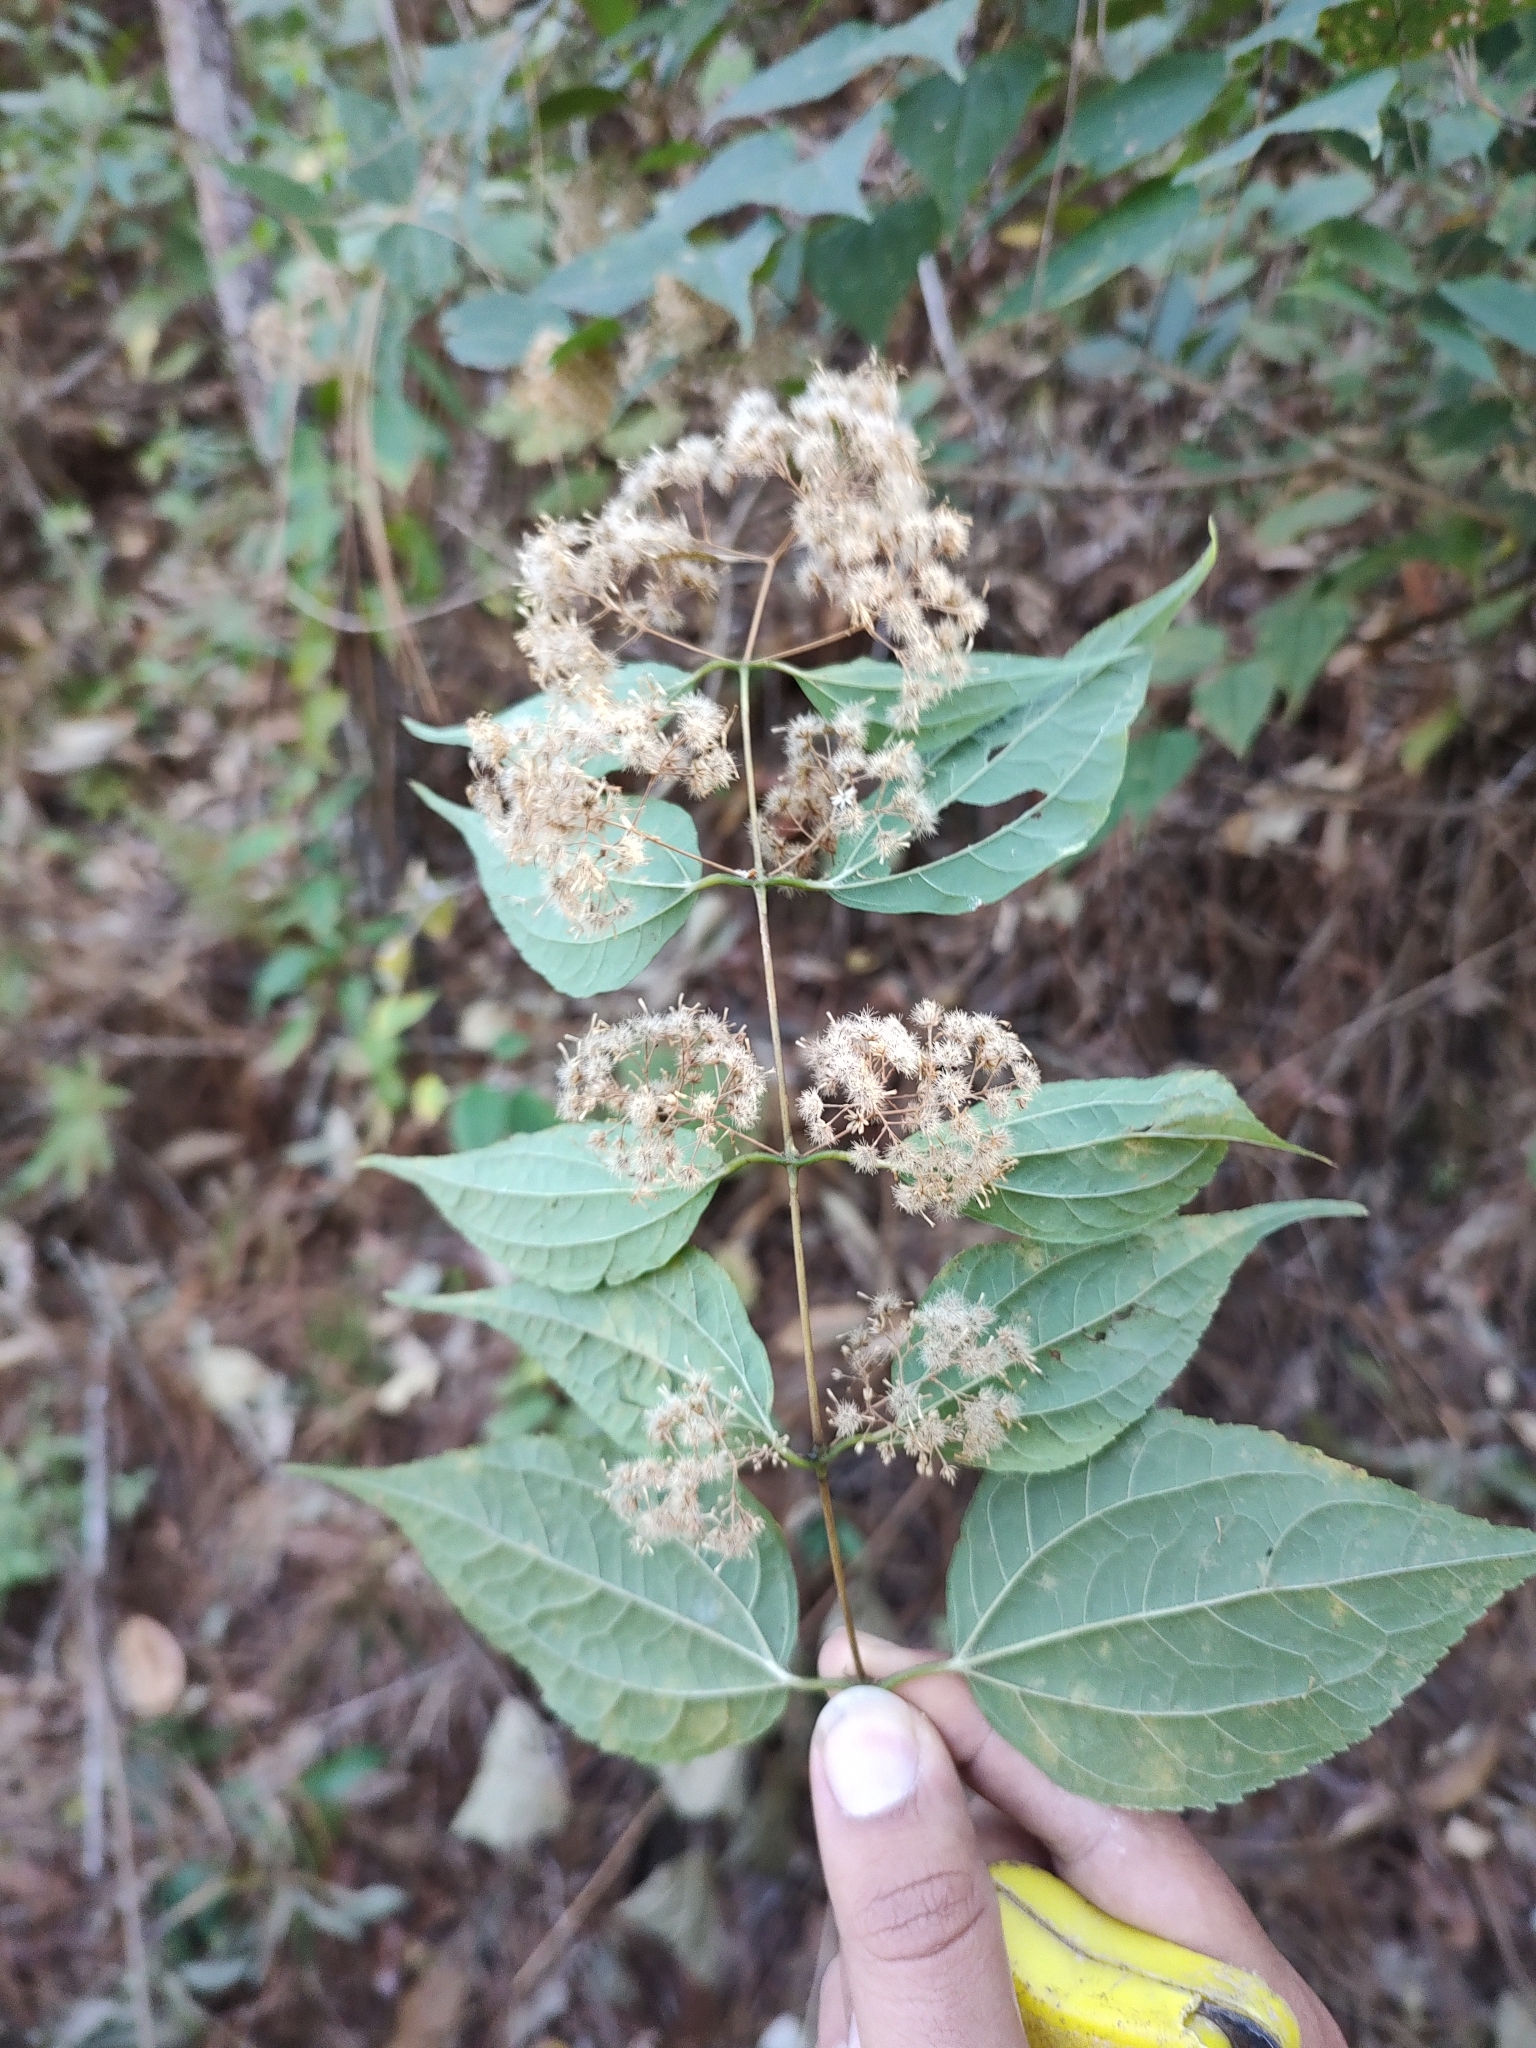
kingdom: Plantae
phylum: Tracheophyta
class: Magnoliopsida
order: Asterales
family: Asteraceae
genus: Ageratina
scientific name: Ageratina areolaris
